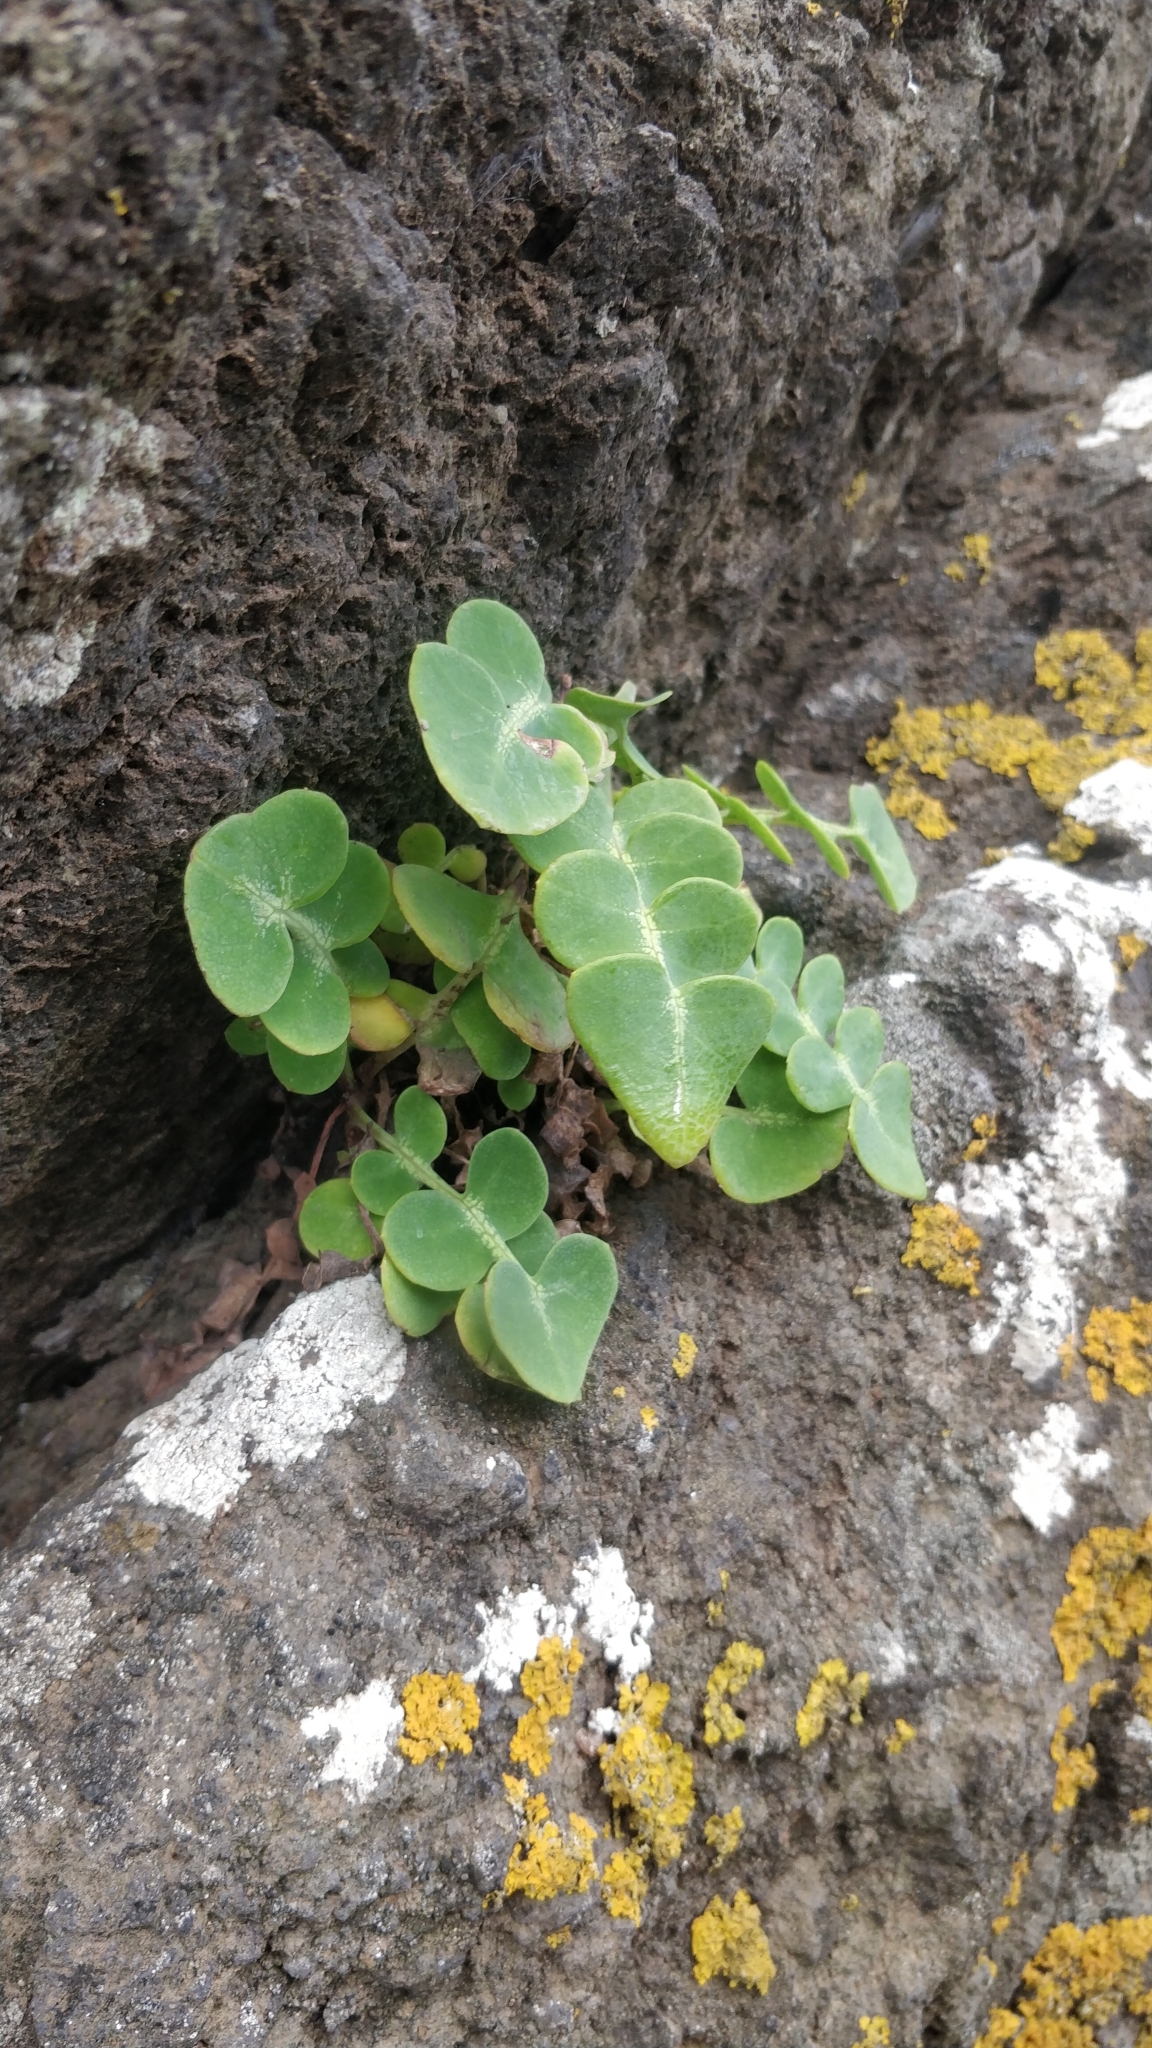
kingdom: Plantae
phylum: Tracheophyta
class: Magnoliopsida
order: Asterales
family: Asteraceae
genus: Sonchus
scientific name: Sonchus latifolius
